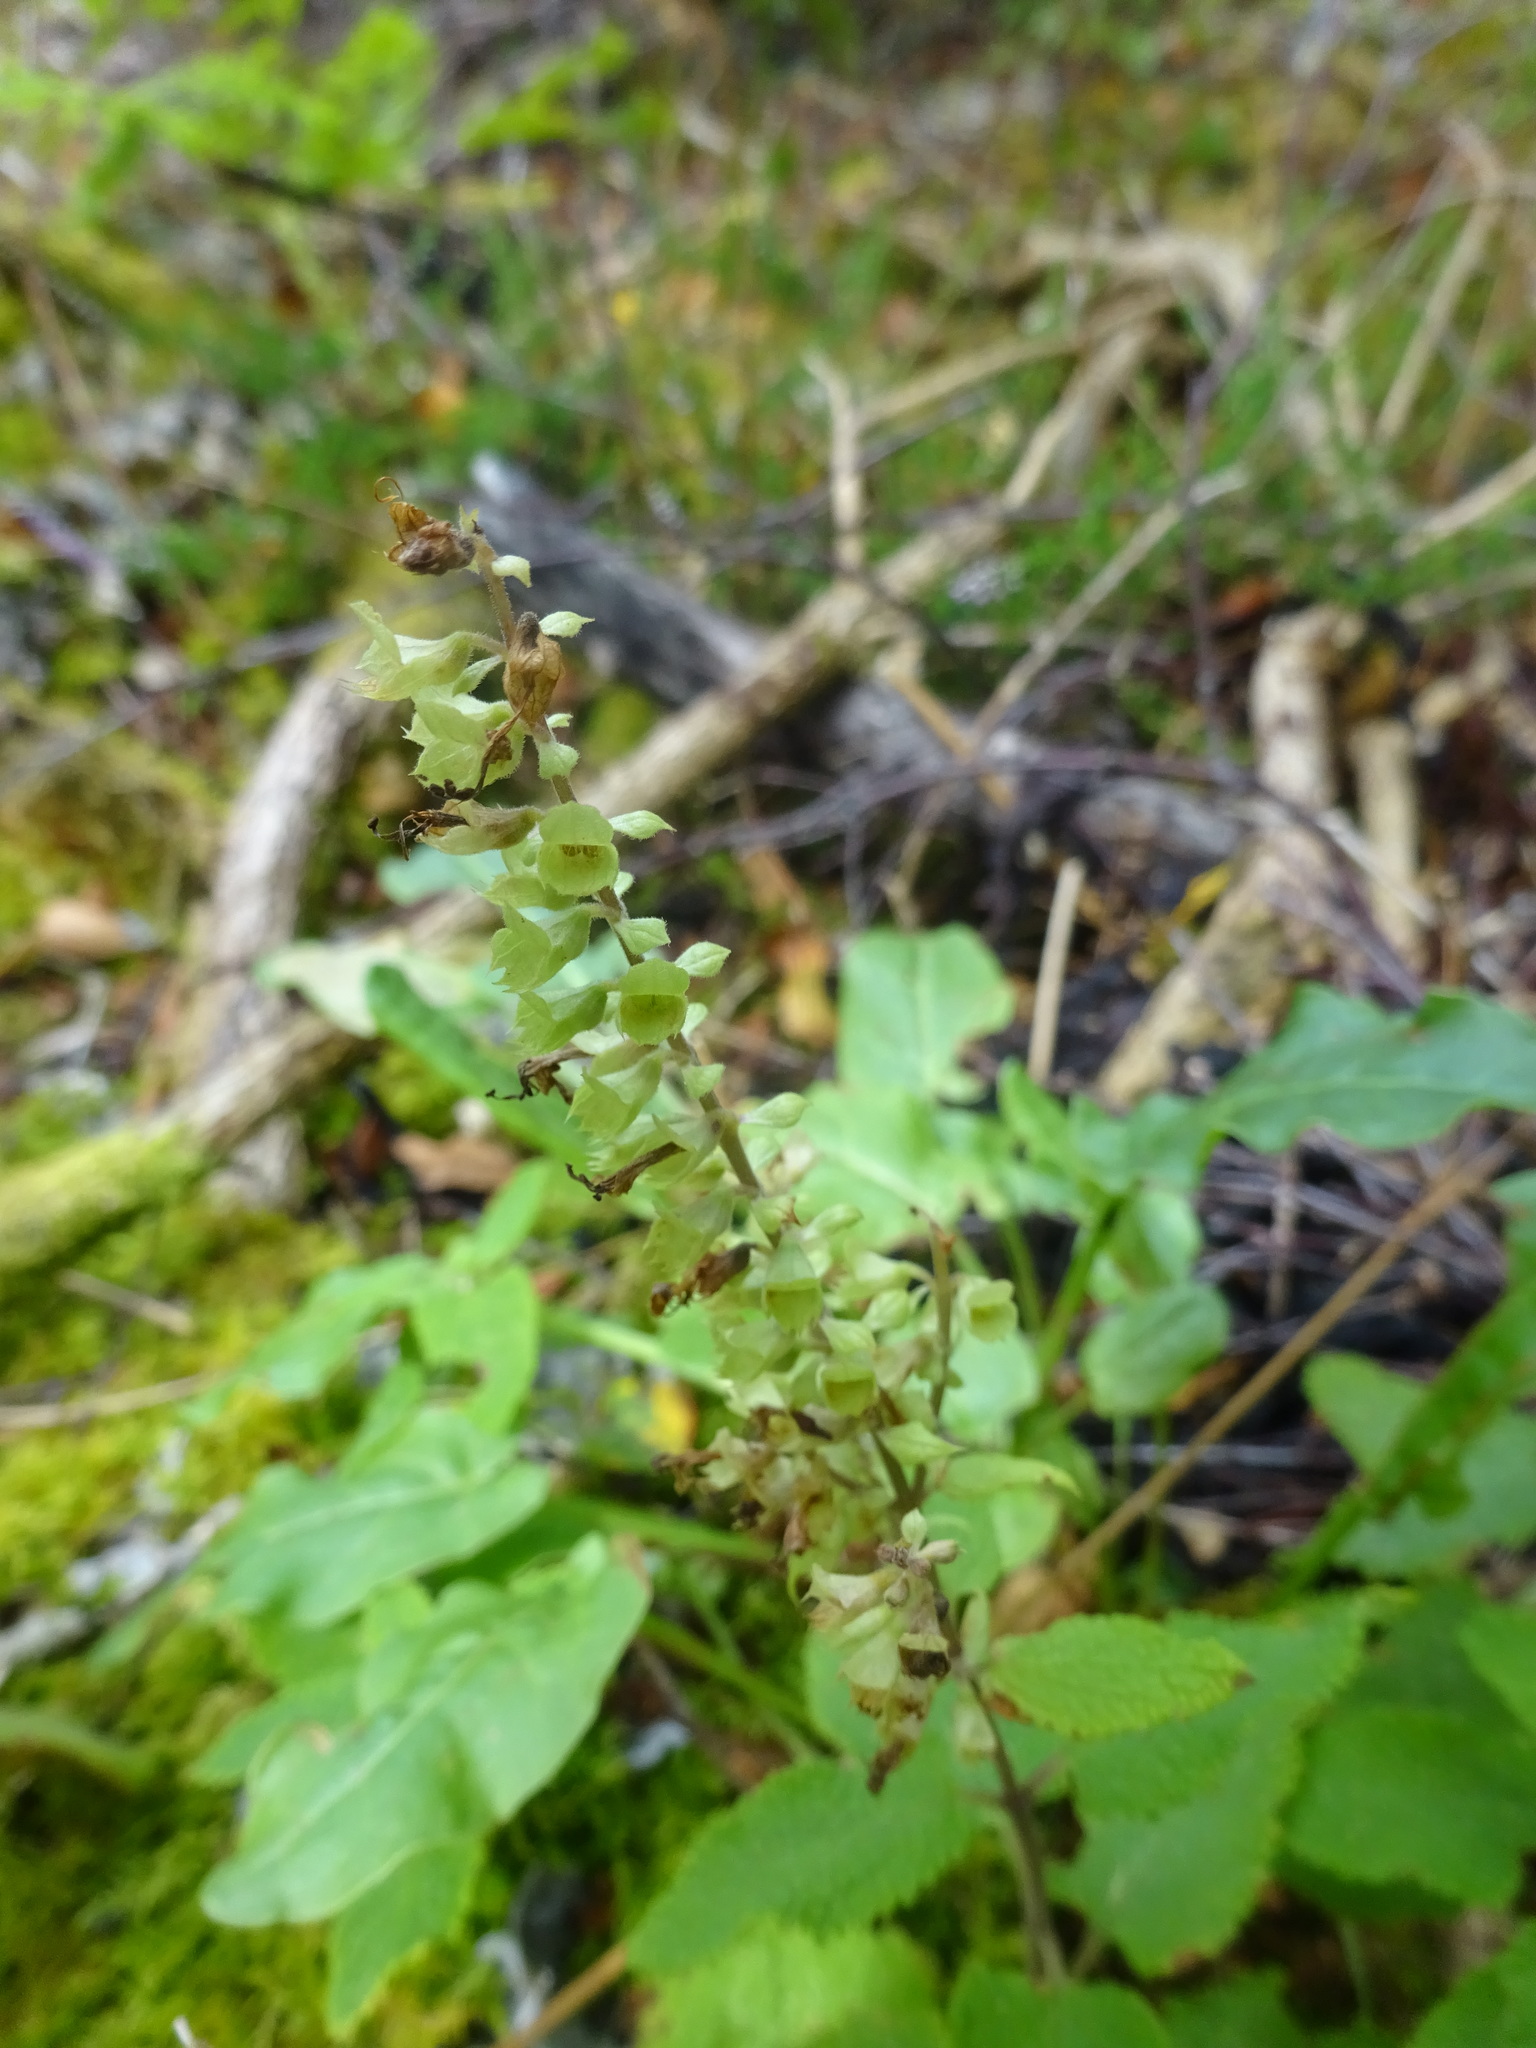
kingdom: Plantae
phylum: Tracheophyta
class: Magnoliopsida
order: Lamiales
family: Lamiaceae
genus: Teucrium
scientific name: Teucrium scorodonia
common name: Woodland germander
